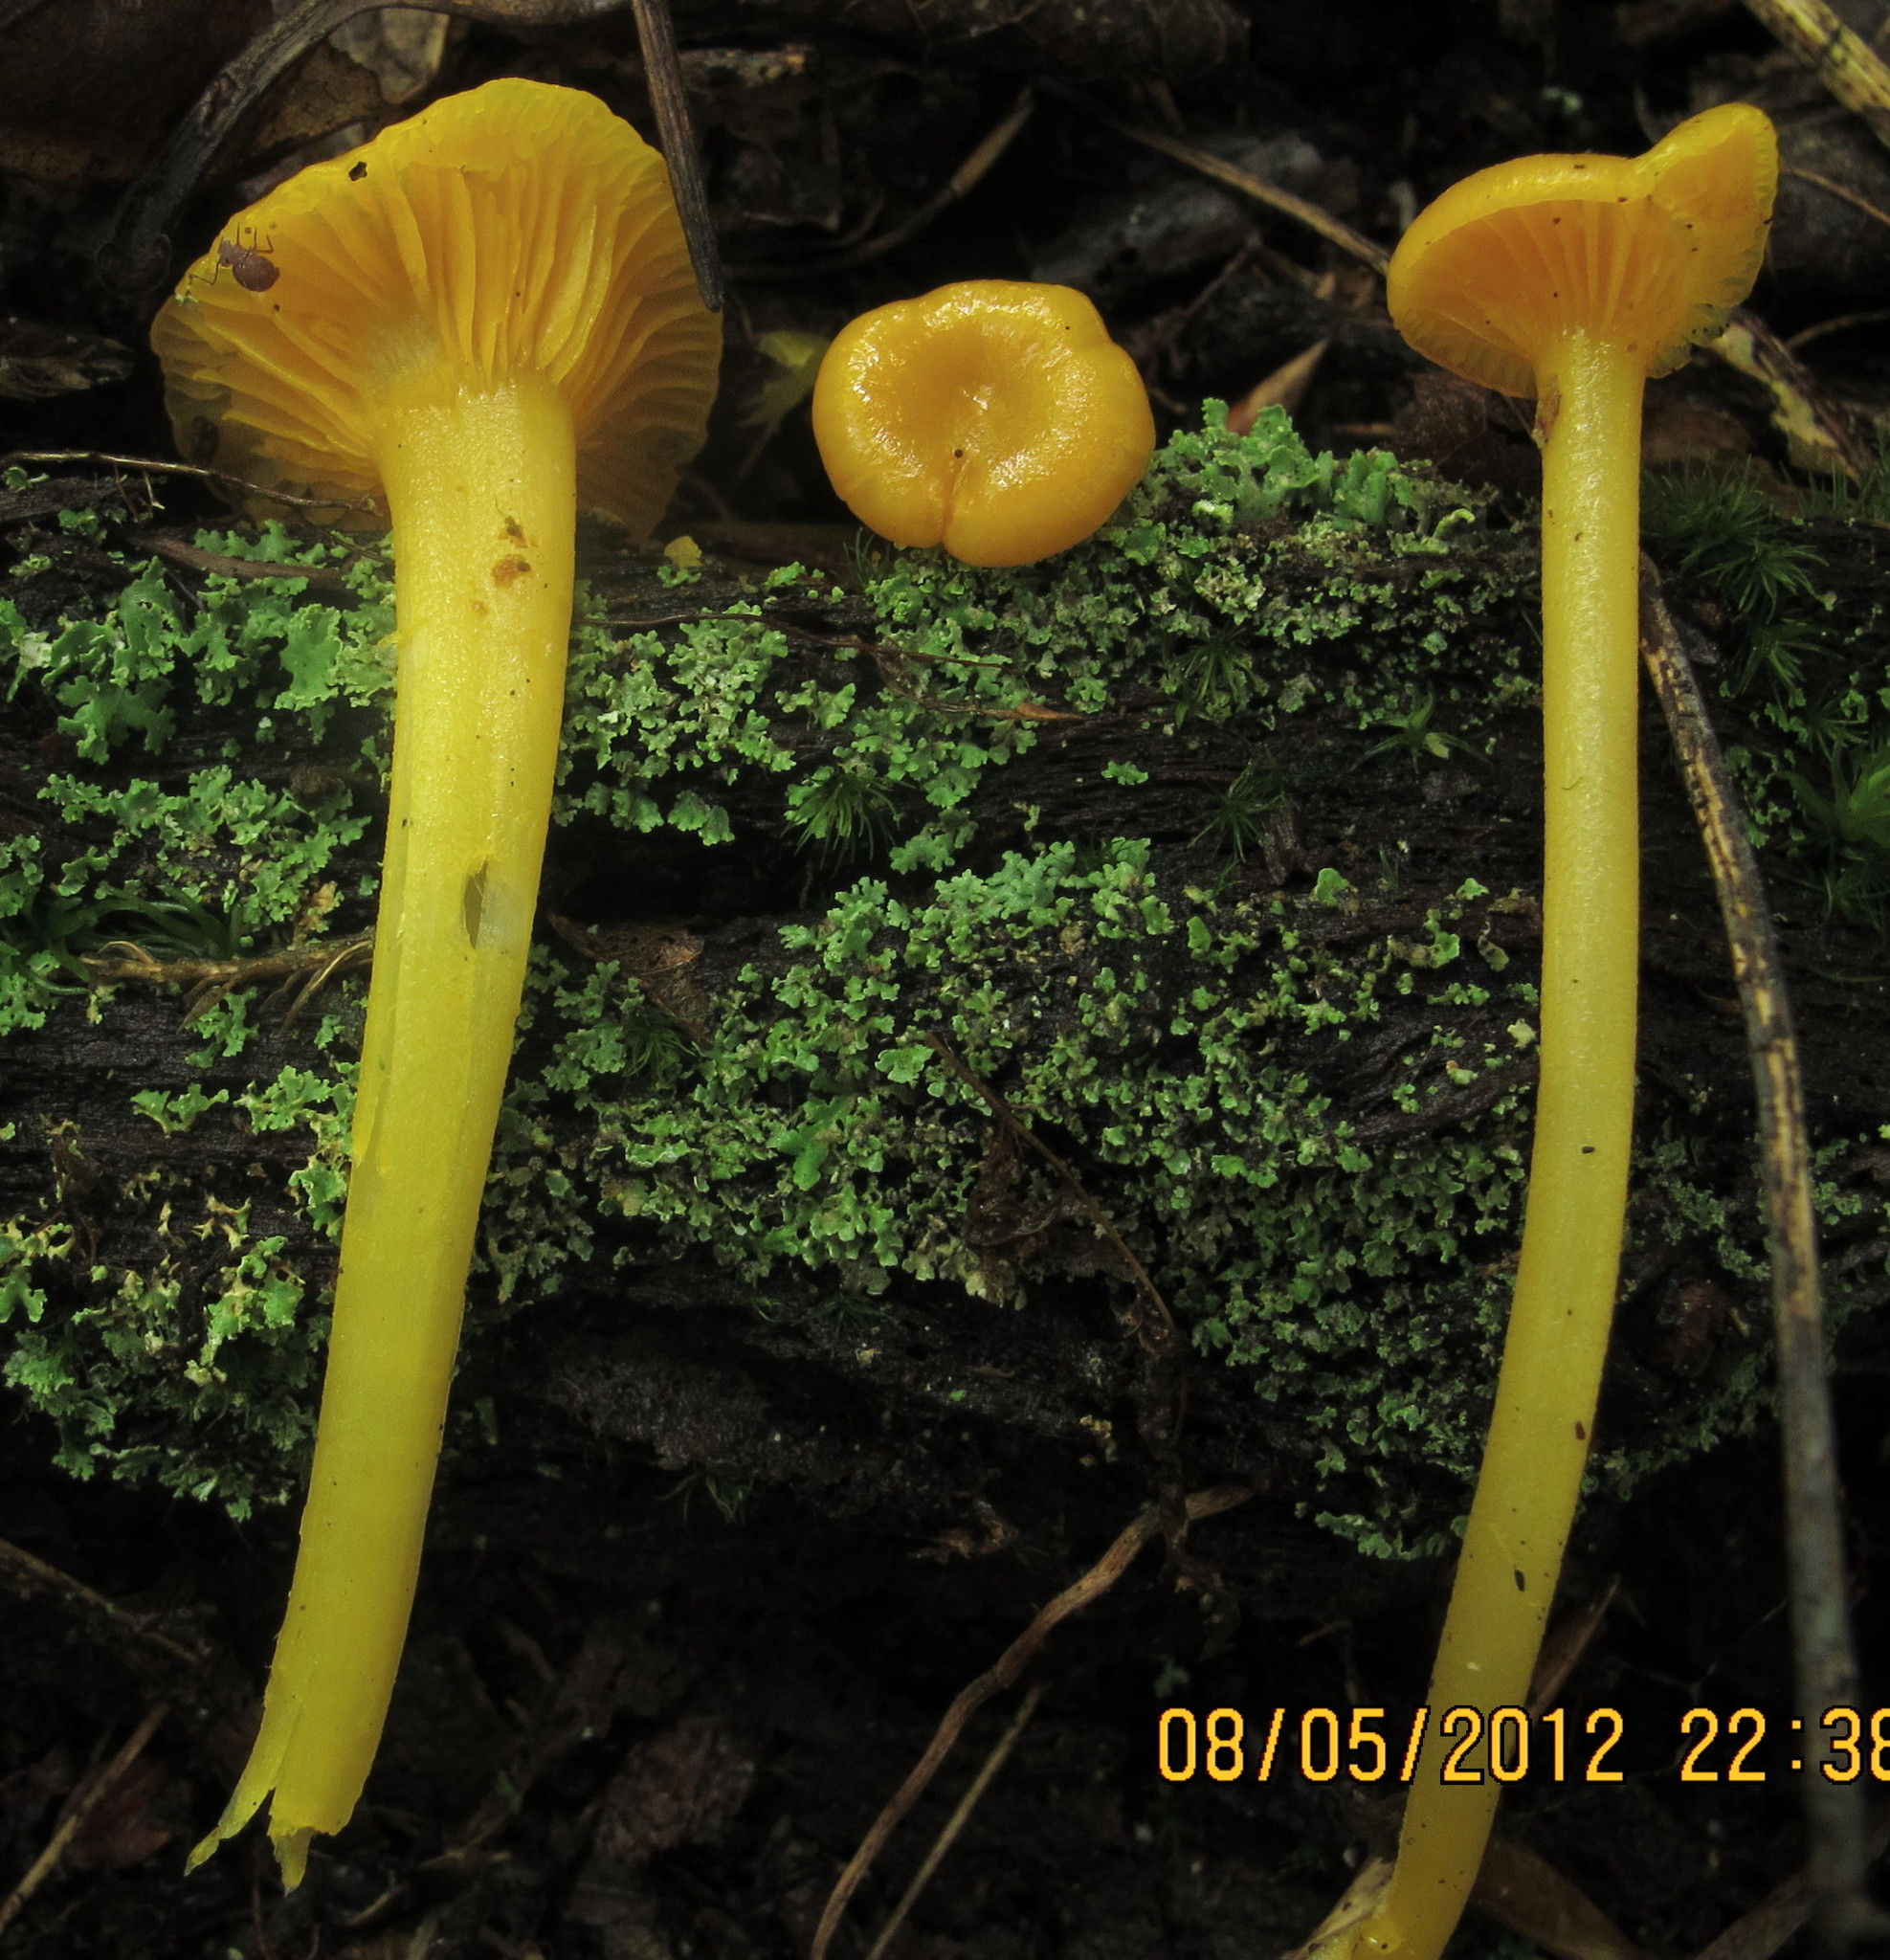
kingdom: Fungi
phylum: Basidiomycota
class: Agaricomycetes
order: Agaricales
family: Hygrophoraceae
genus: Gloioxanthomyces
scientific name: Gloioxanthomyces nitidus
